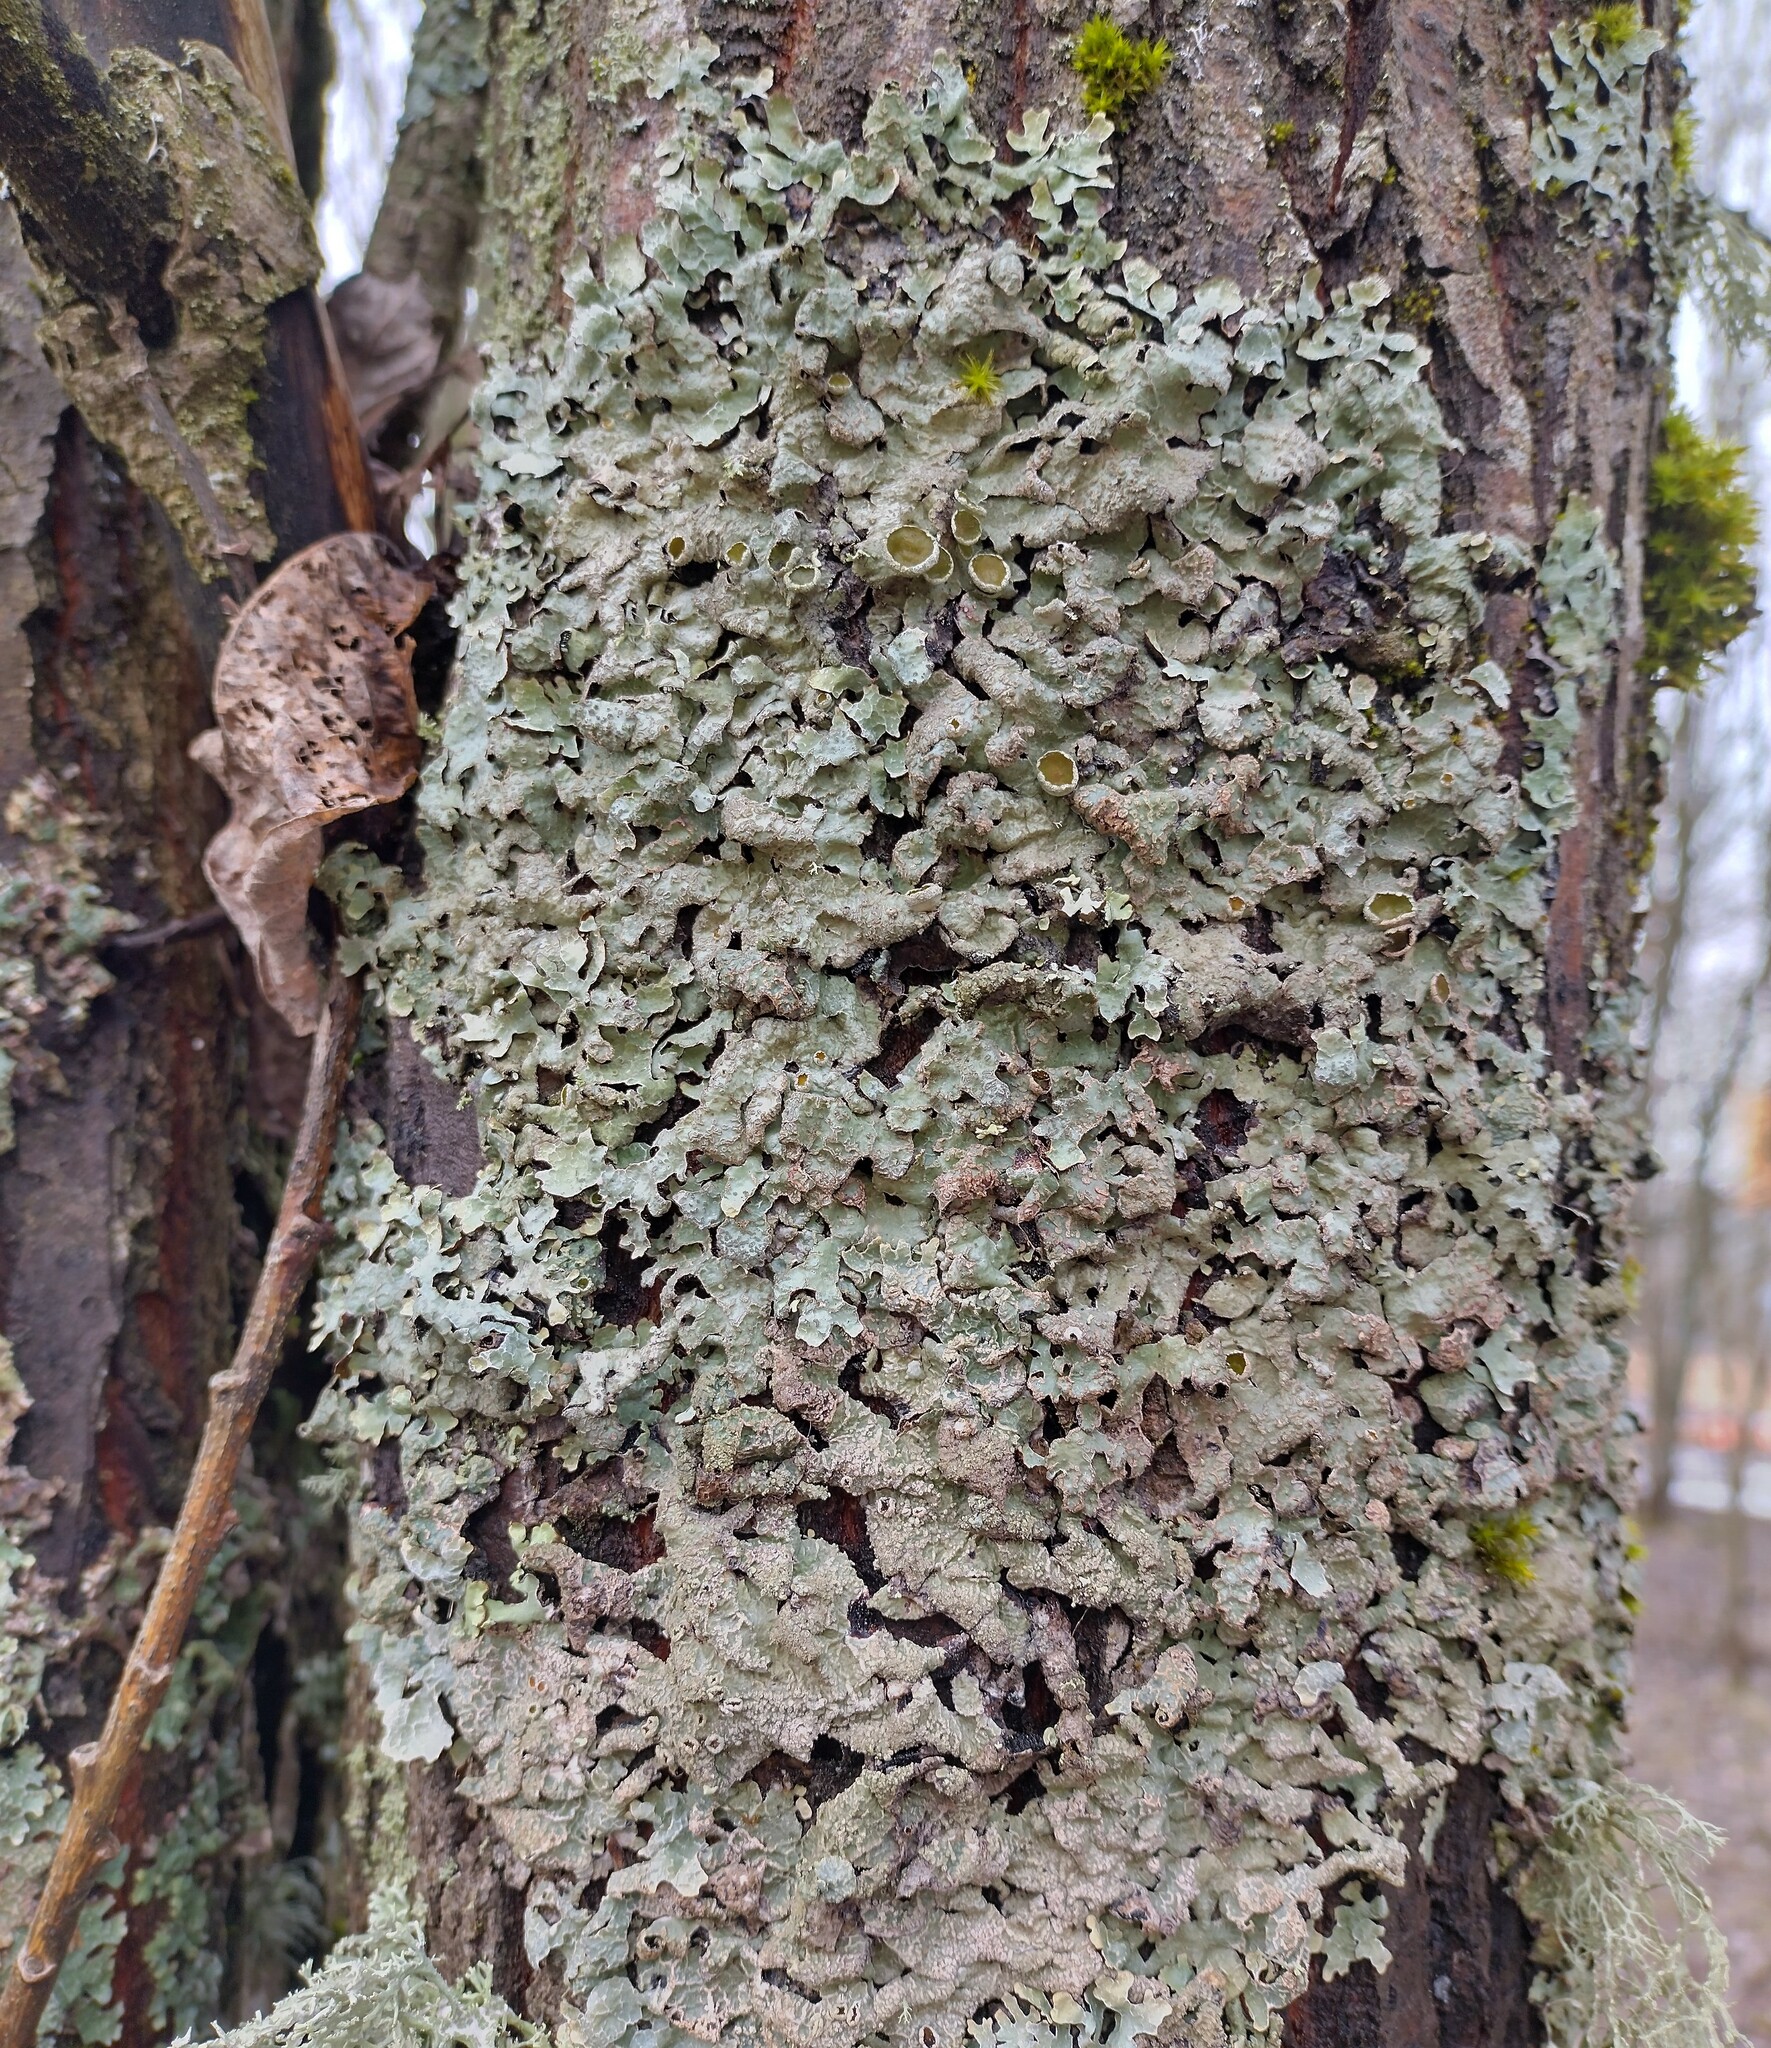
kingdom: Fungi
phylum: Ascomycota
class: Lecanoromycetes
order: Lecanorales
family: Parmeliaceae
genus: Parmelia
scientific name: Parmelia sulcata
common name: Netted shield lichen
